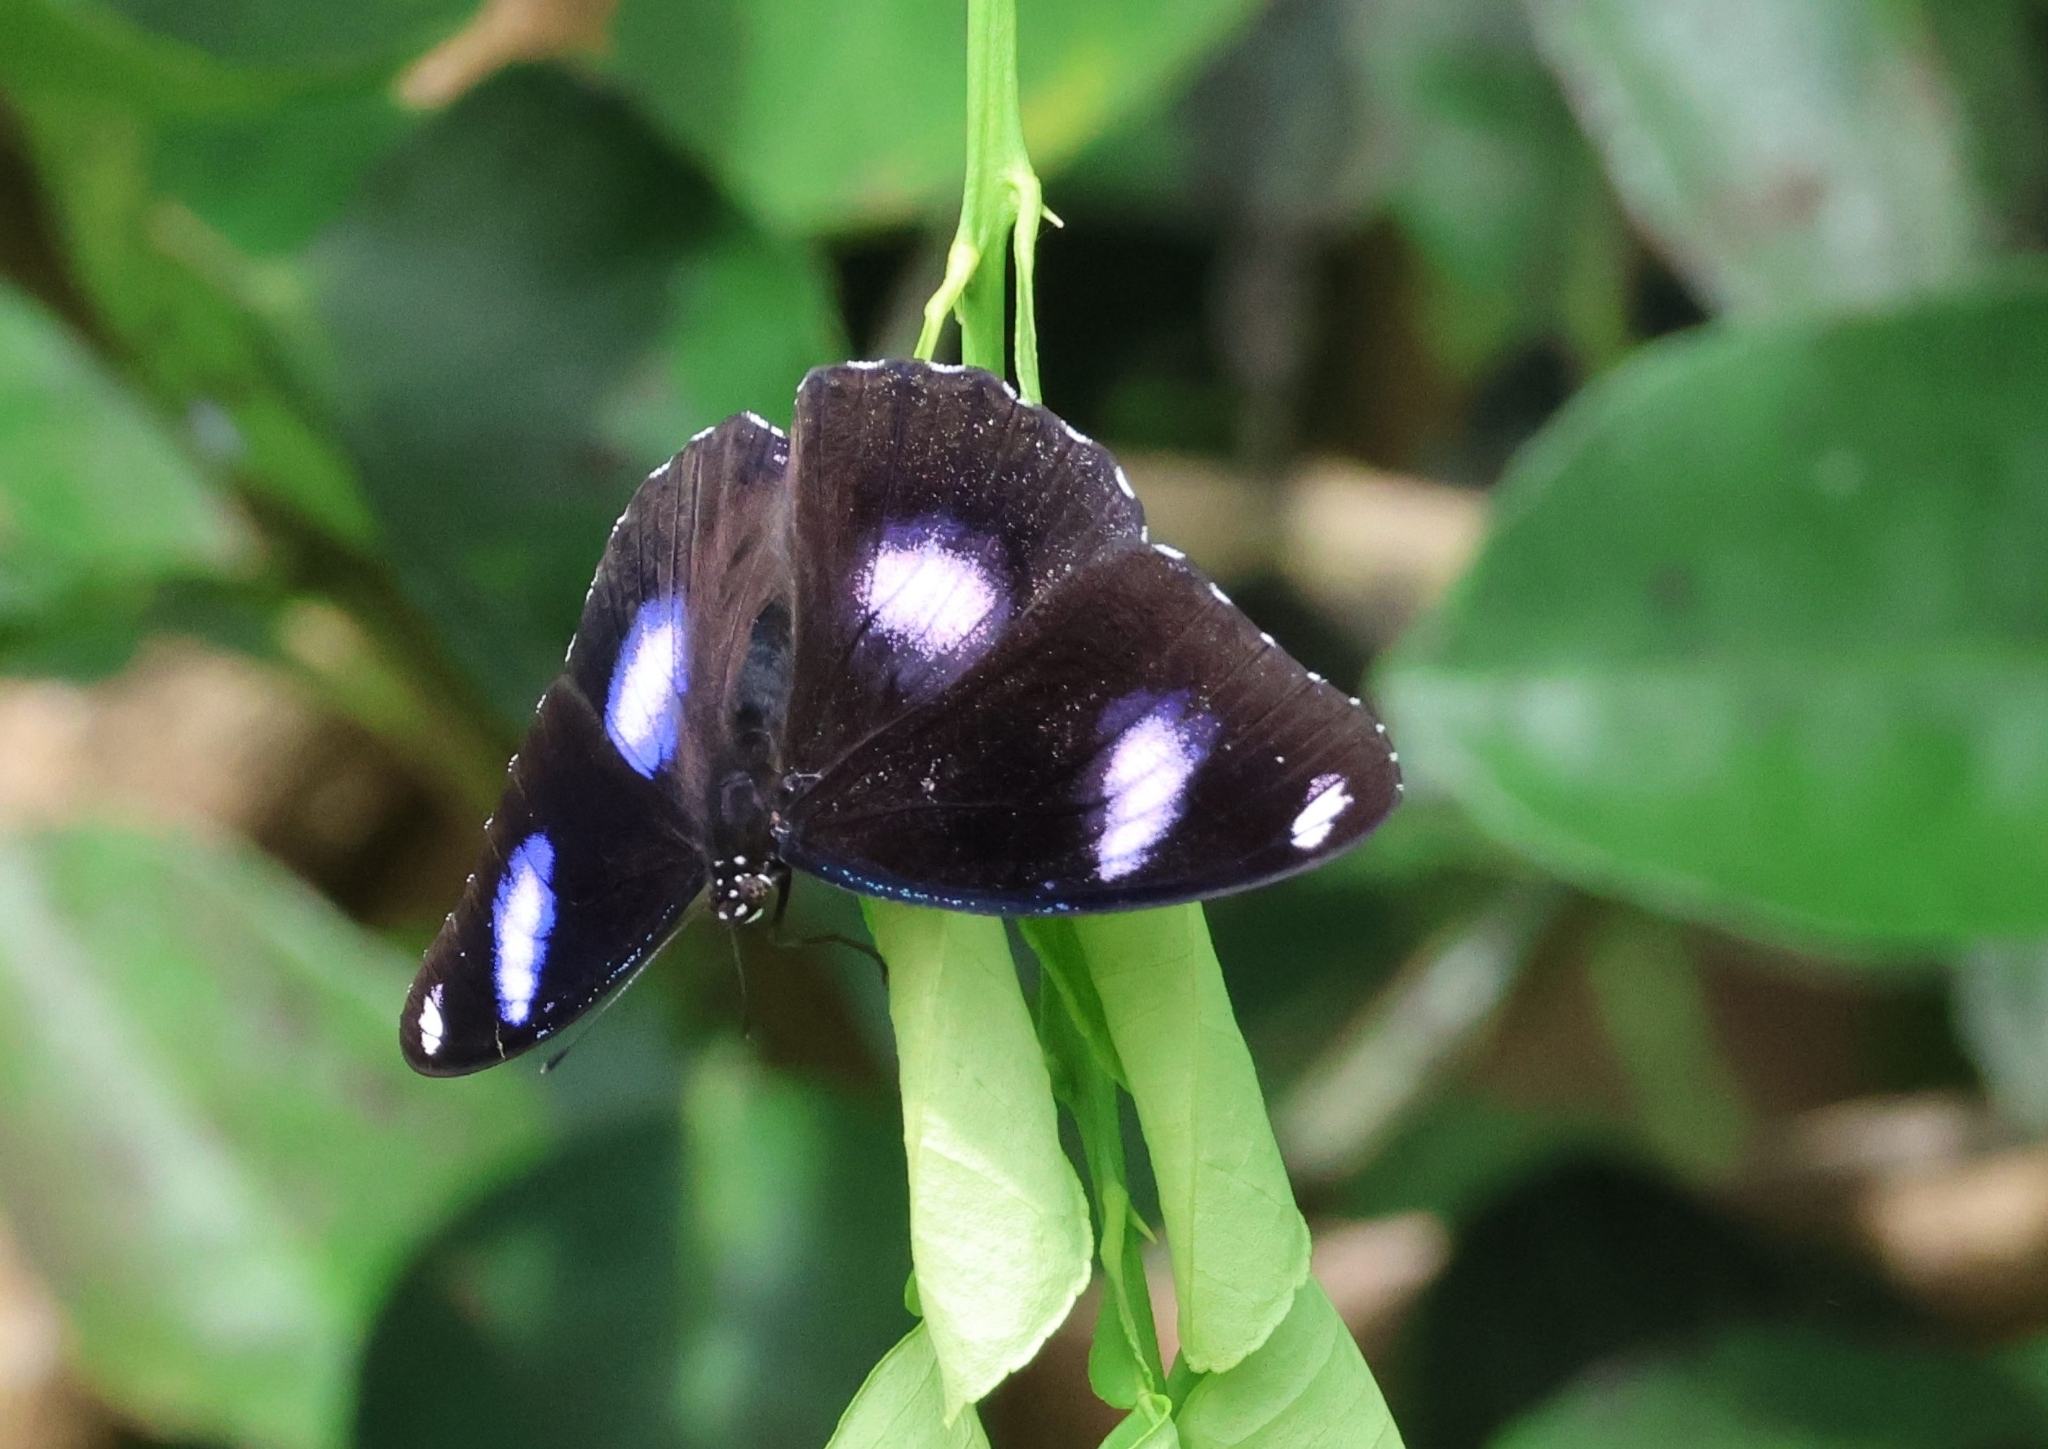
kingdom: Animalia
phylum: Arthropoda
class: Insecta
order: Lepidoptera
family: Nymphalidae
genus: Hypolimnas
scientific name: Hypolimnas bolina
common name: Great eggfly
